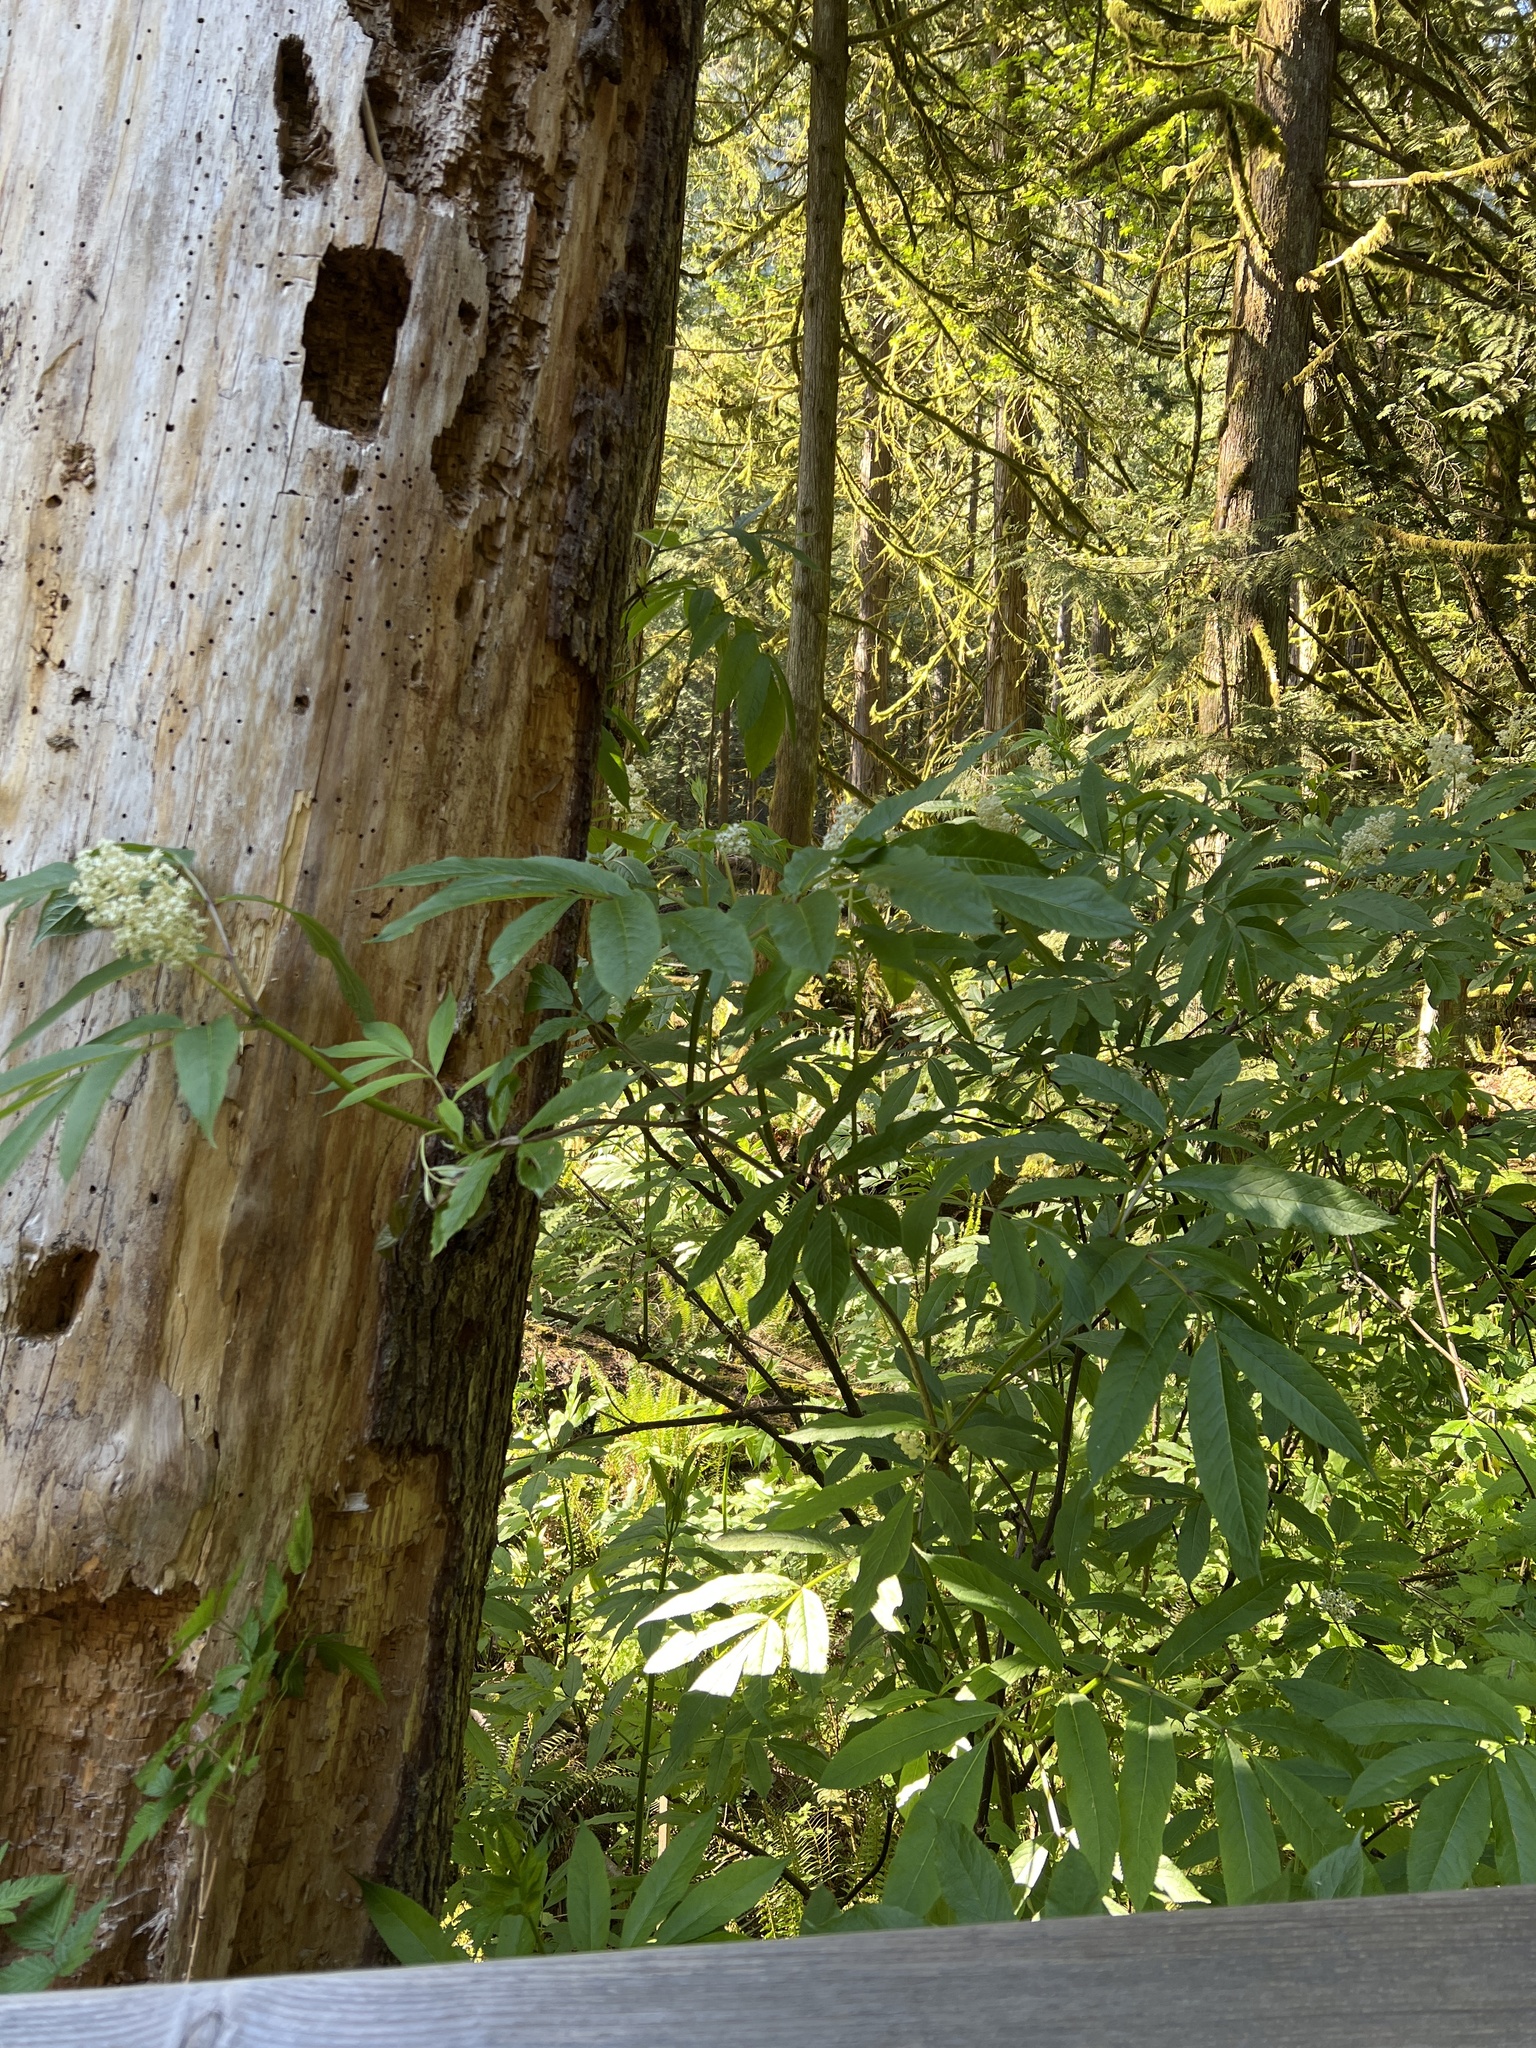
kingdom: Plantae
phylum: Tracheophyta
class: Magnoliopsida
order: Dipsacales
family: Viburnaceae
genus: Sambucus
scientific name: Sambucus racemosa
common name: Red-berried elder
